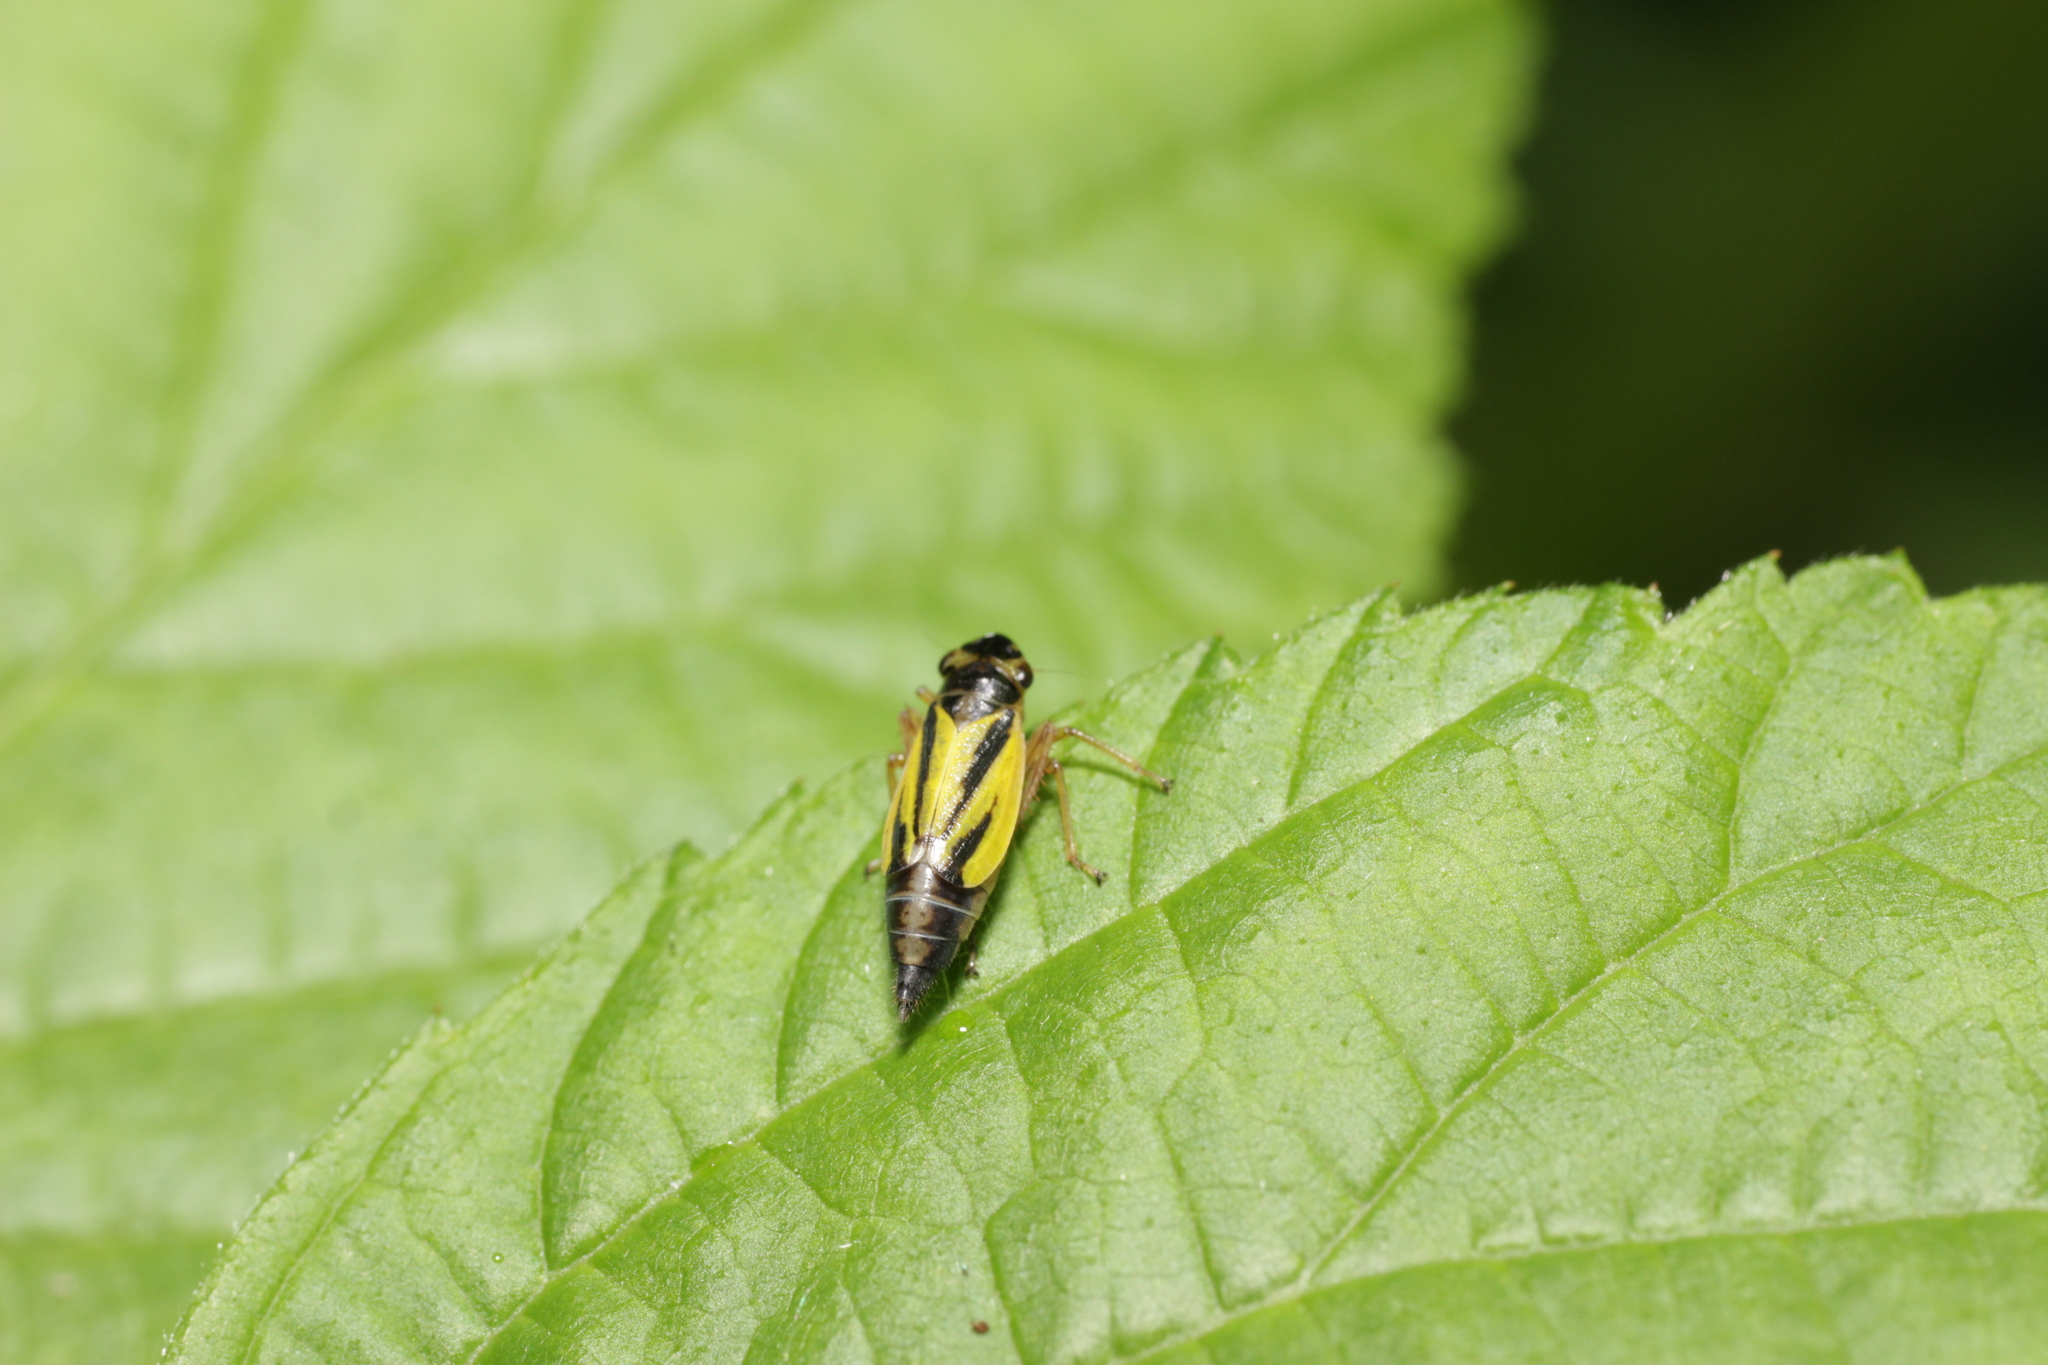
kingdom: Animalia
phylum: Arthropoda
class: Insecta
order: Hemiptera
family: Cicadellidae
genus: Evacanthus
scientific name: Evacanthus interruptus
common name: Leafhopper
